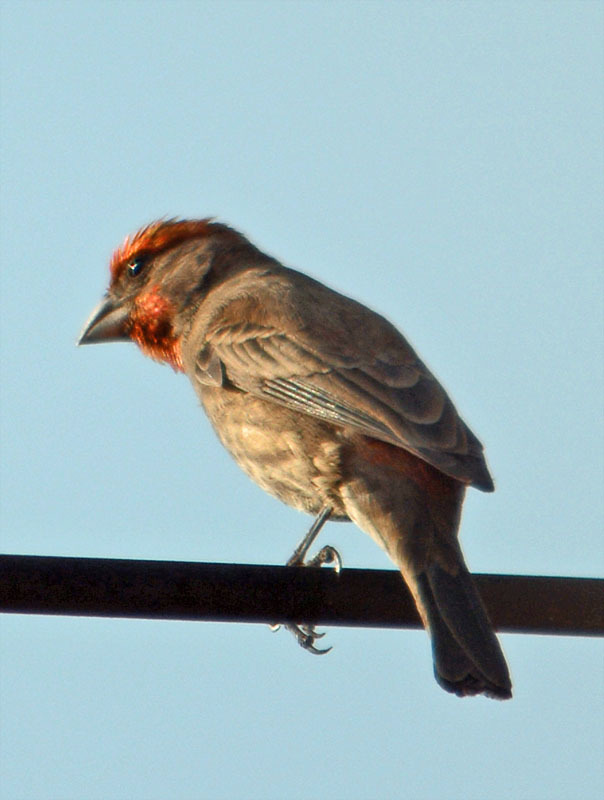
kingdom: Animalia
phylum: Chordata
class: Aves
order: Passeriformes
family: Fringillidae
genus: Haemorhous
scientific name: Haemorhous mexicanus
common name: House finch
